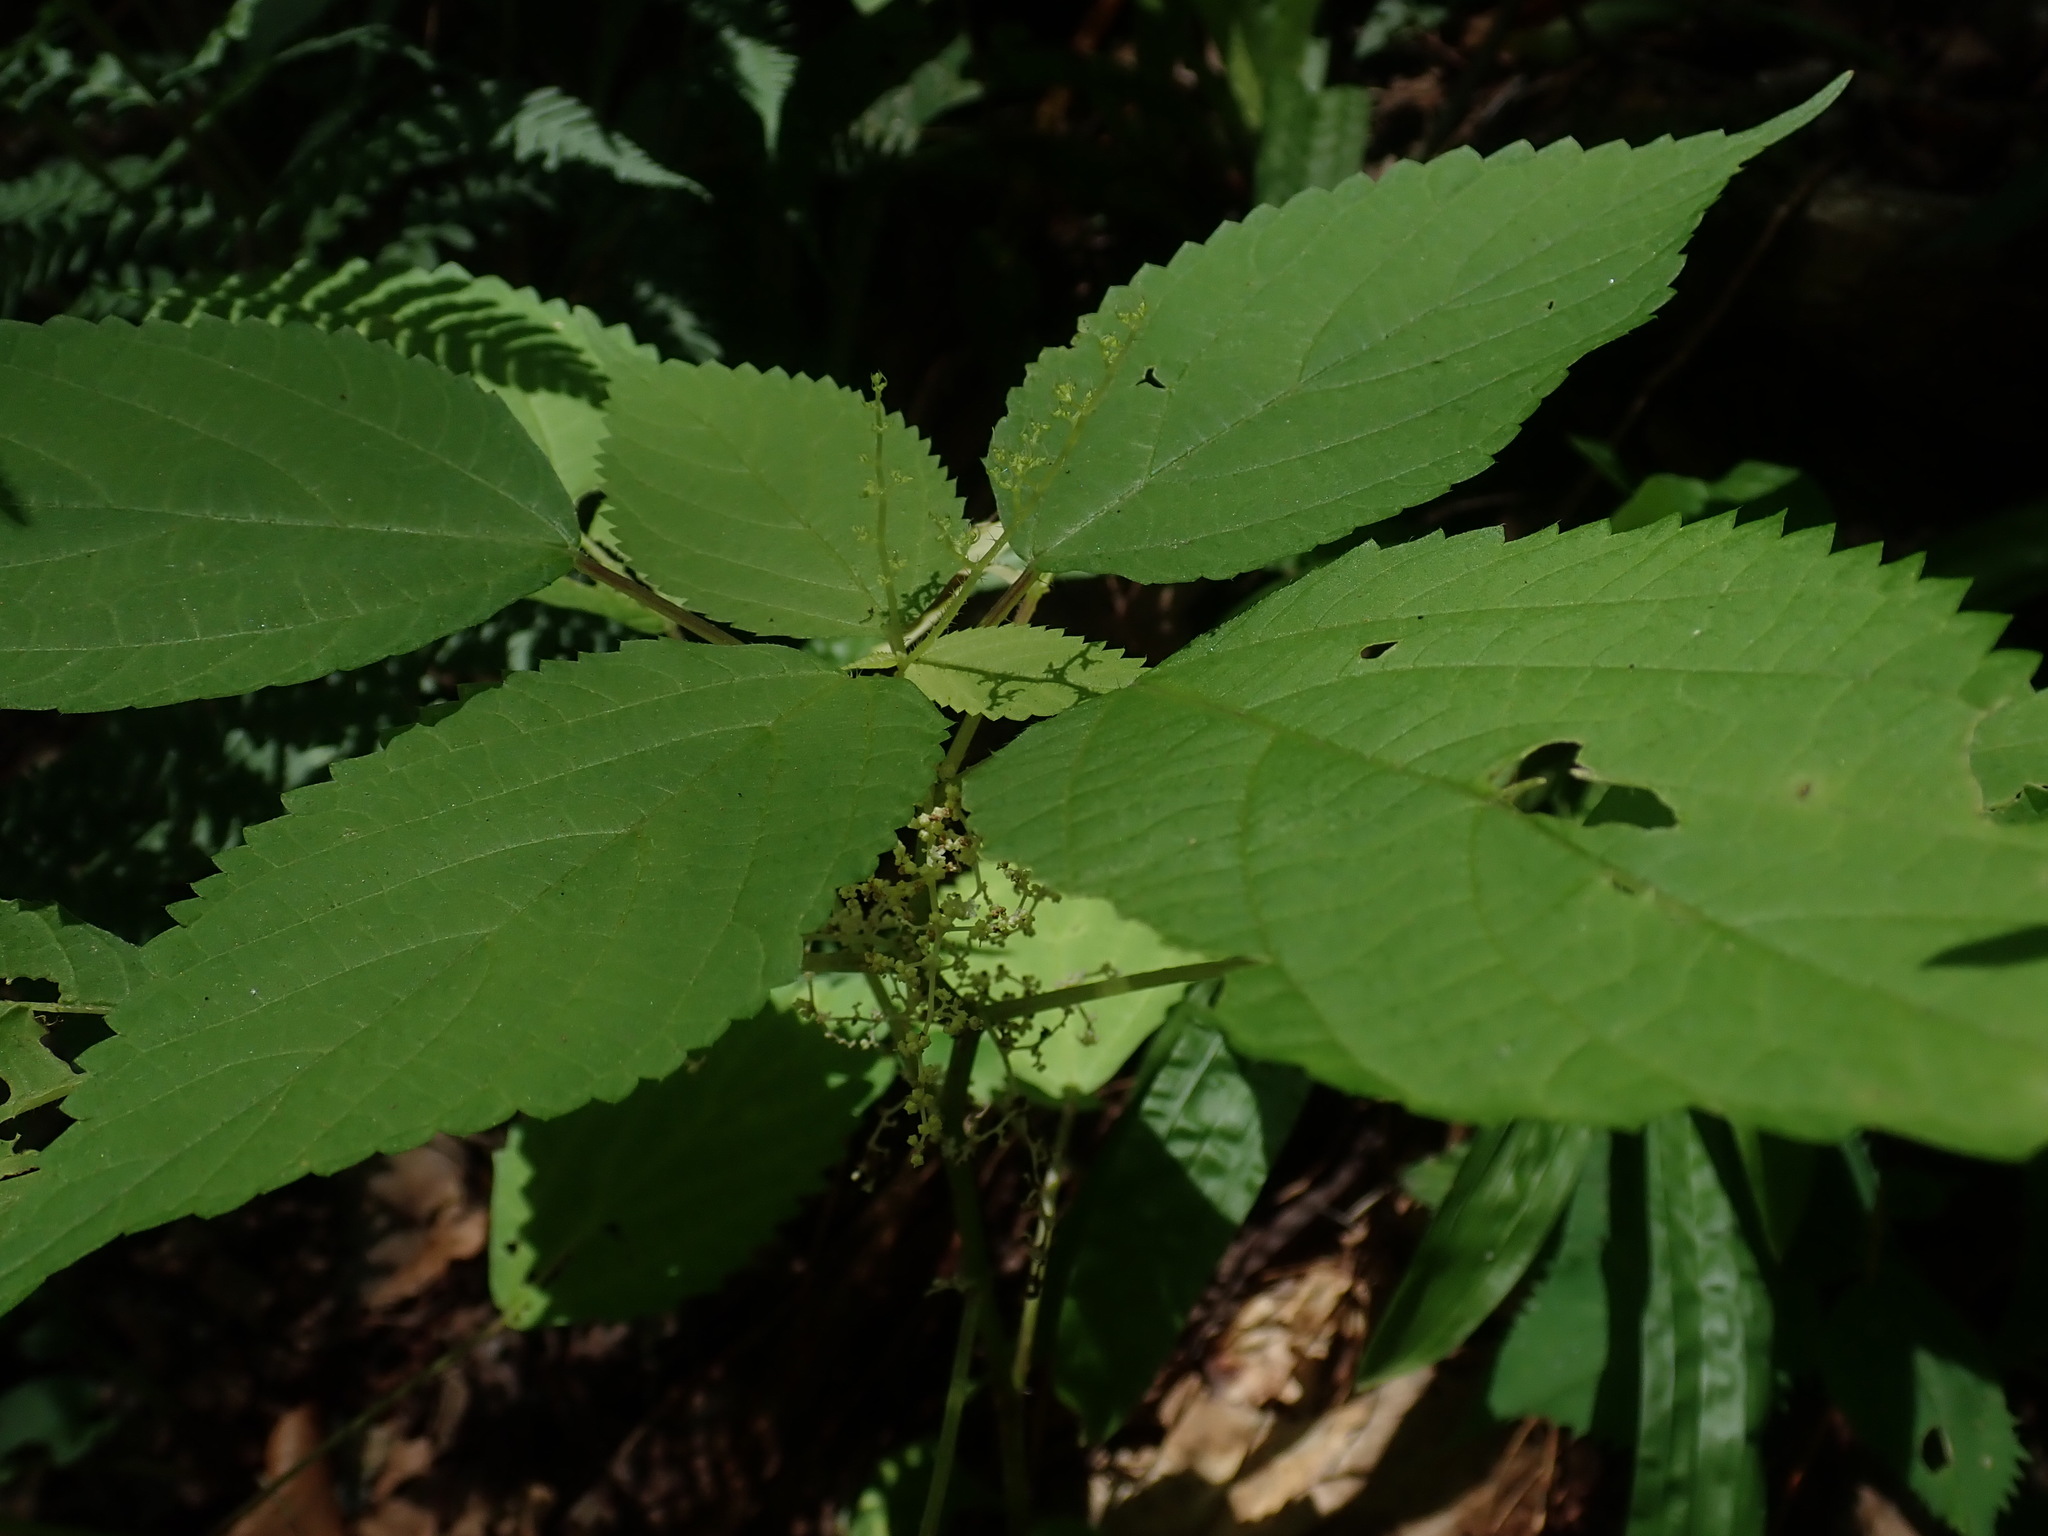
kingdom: Plantae
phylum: Tracheophyta
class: Magnoliopsida
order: Rosales
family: Urticaceae
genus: Laportea
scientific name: Laportea canadensis
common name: Canada nettle
